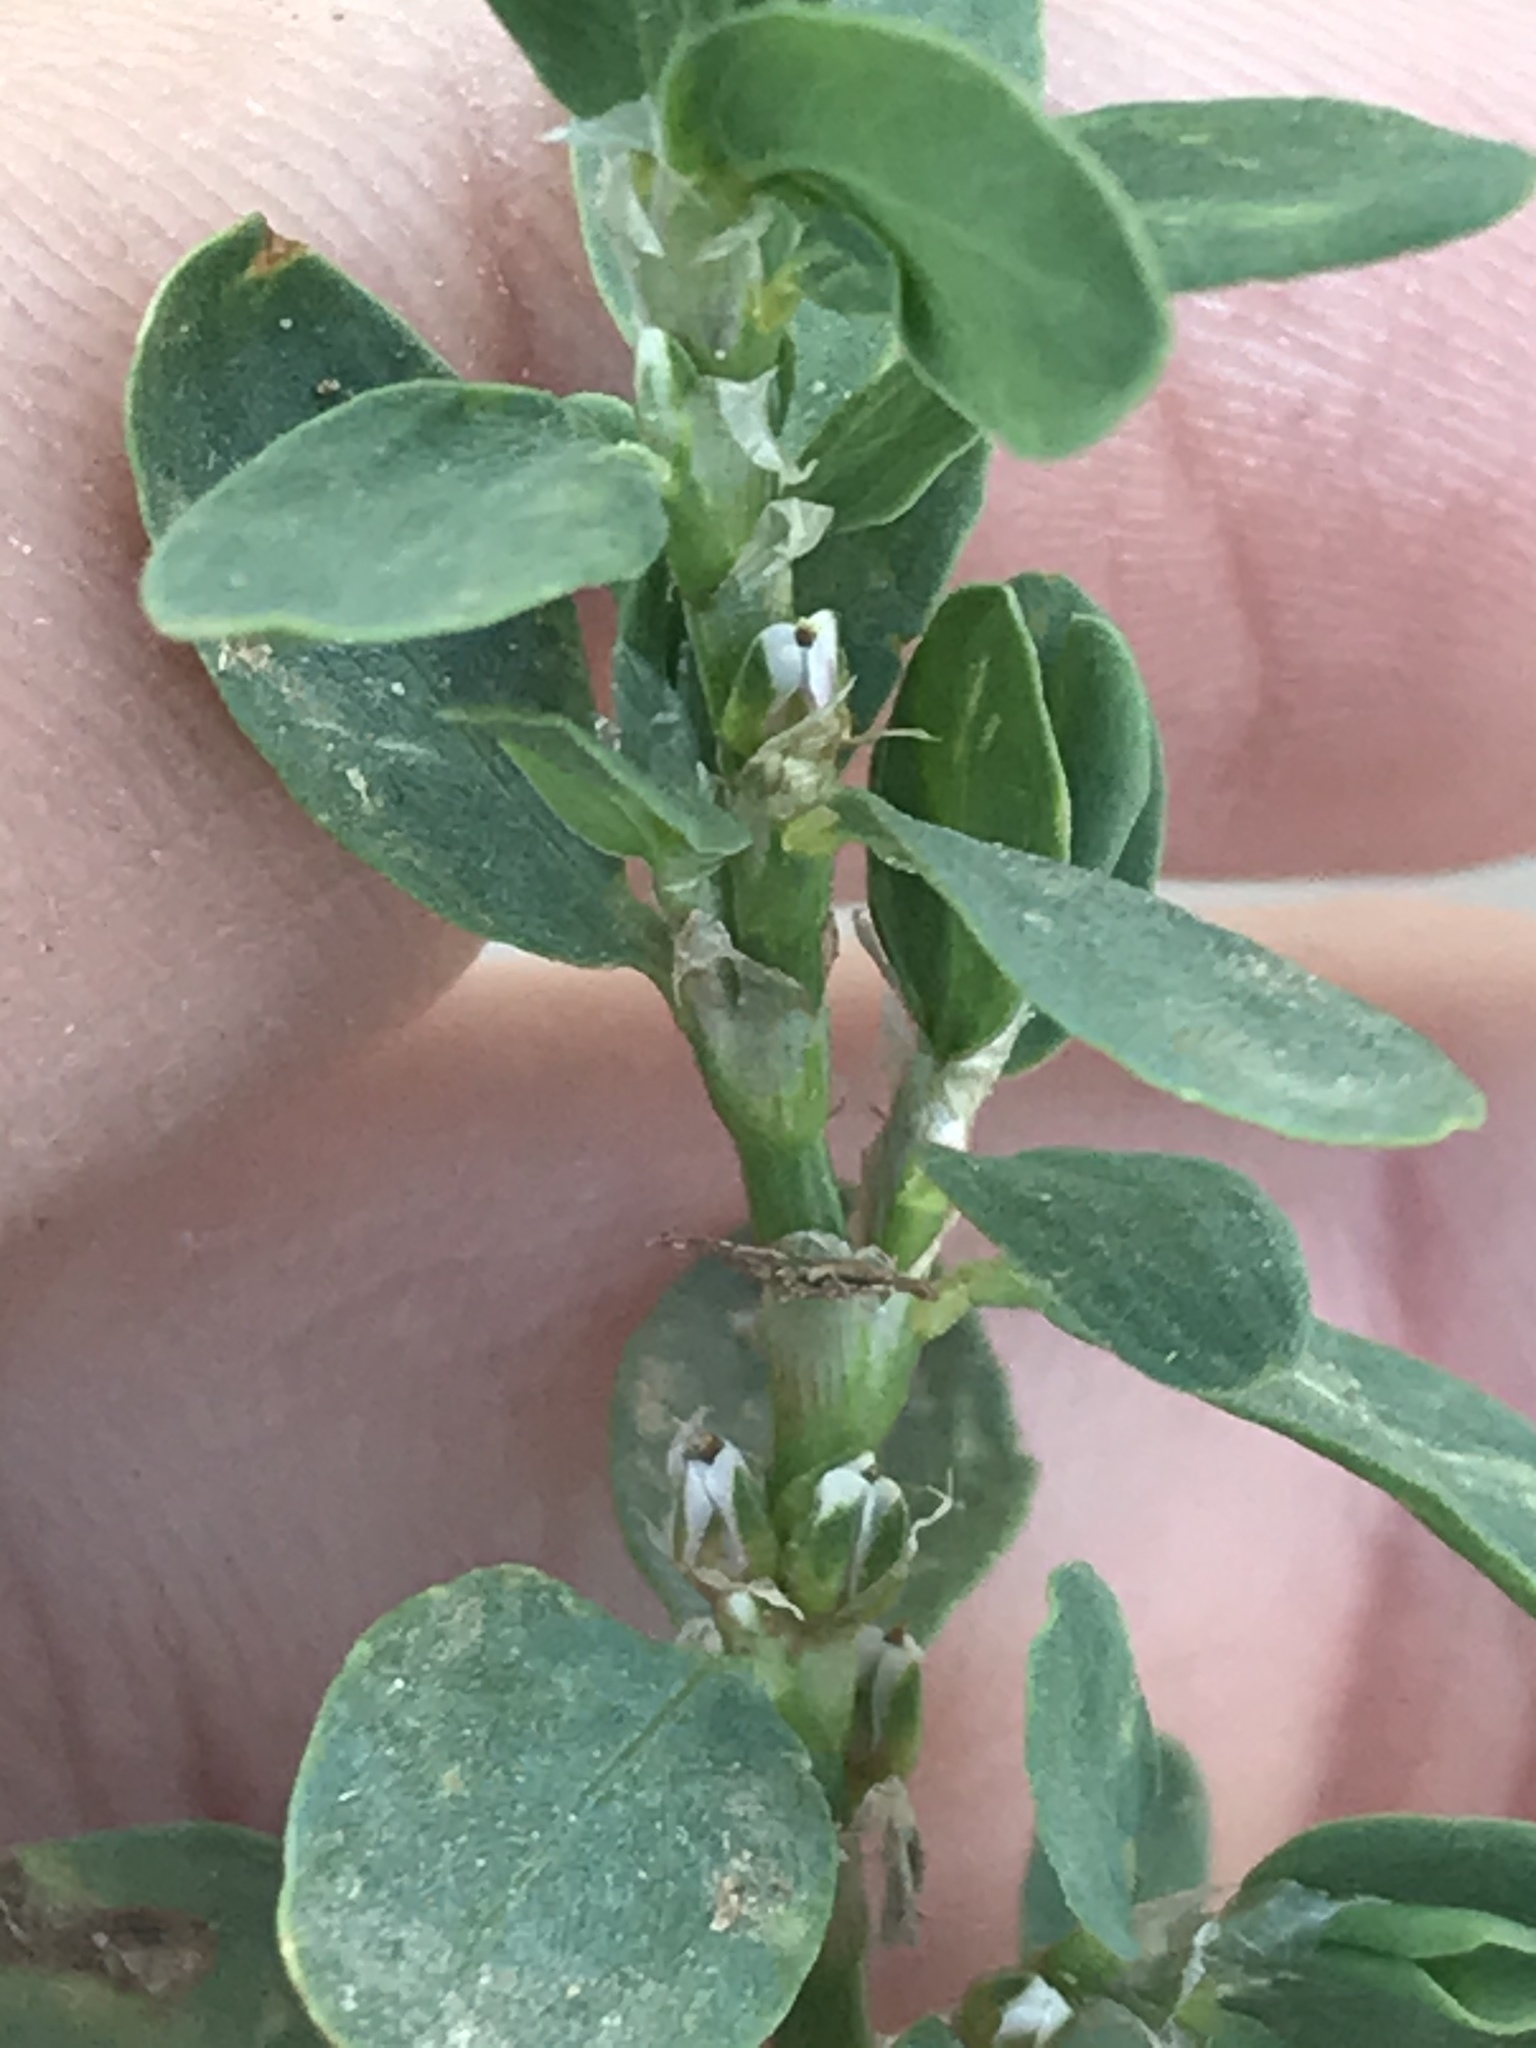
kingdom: Plantae
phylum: Tracheophyta
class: Magnoliopsida
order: Caryophyllales
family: Polygonaceae
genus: Polygonum
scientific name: Polygonum aviculare
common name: Prostrate knotweed
